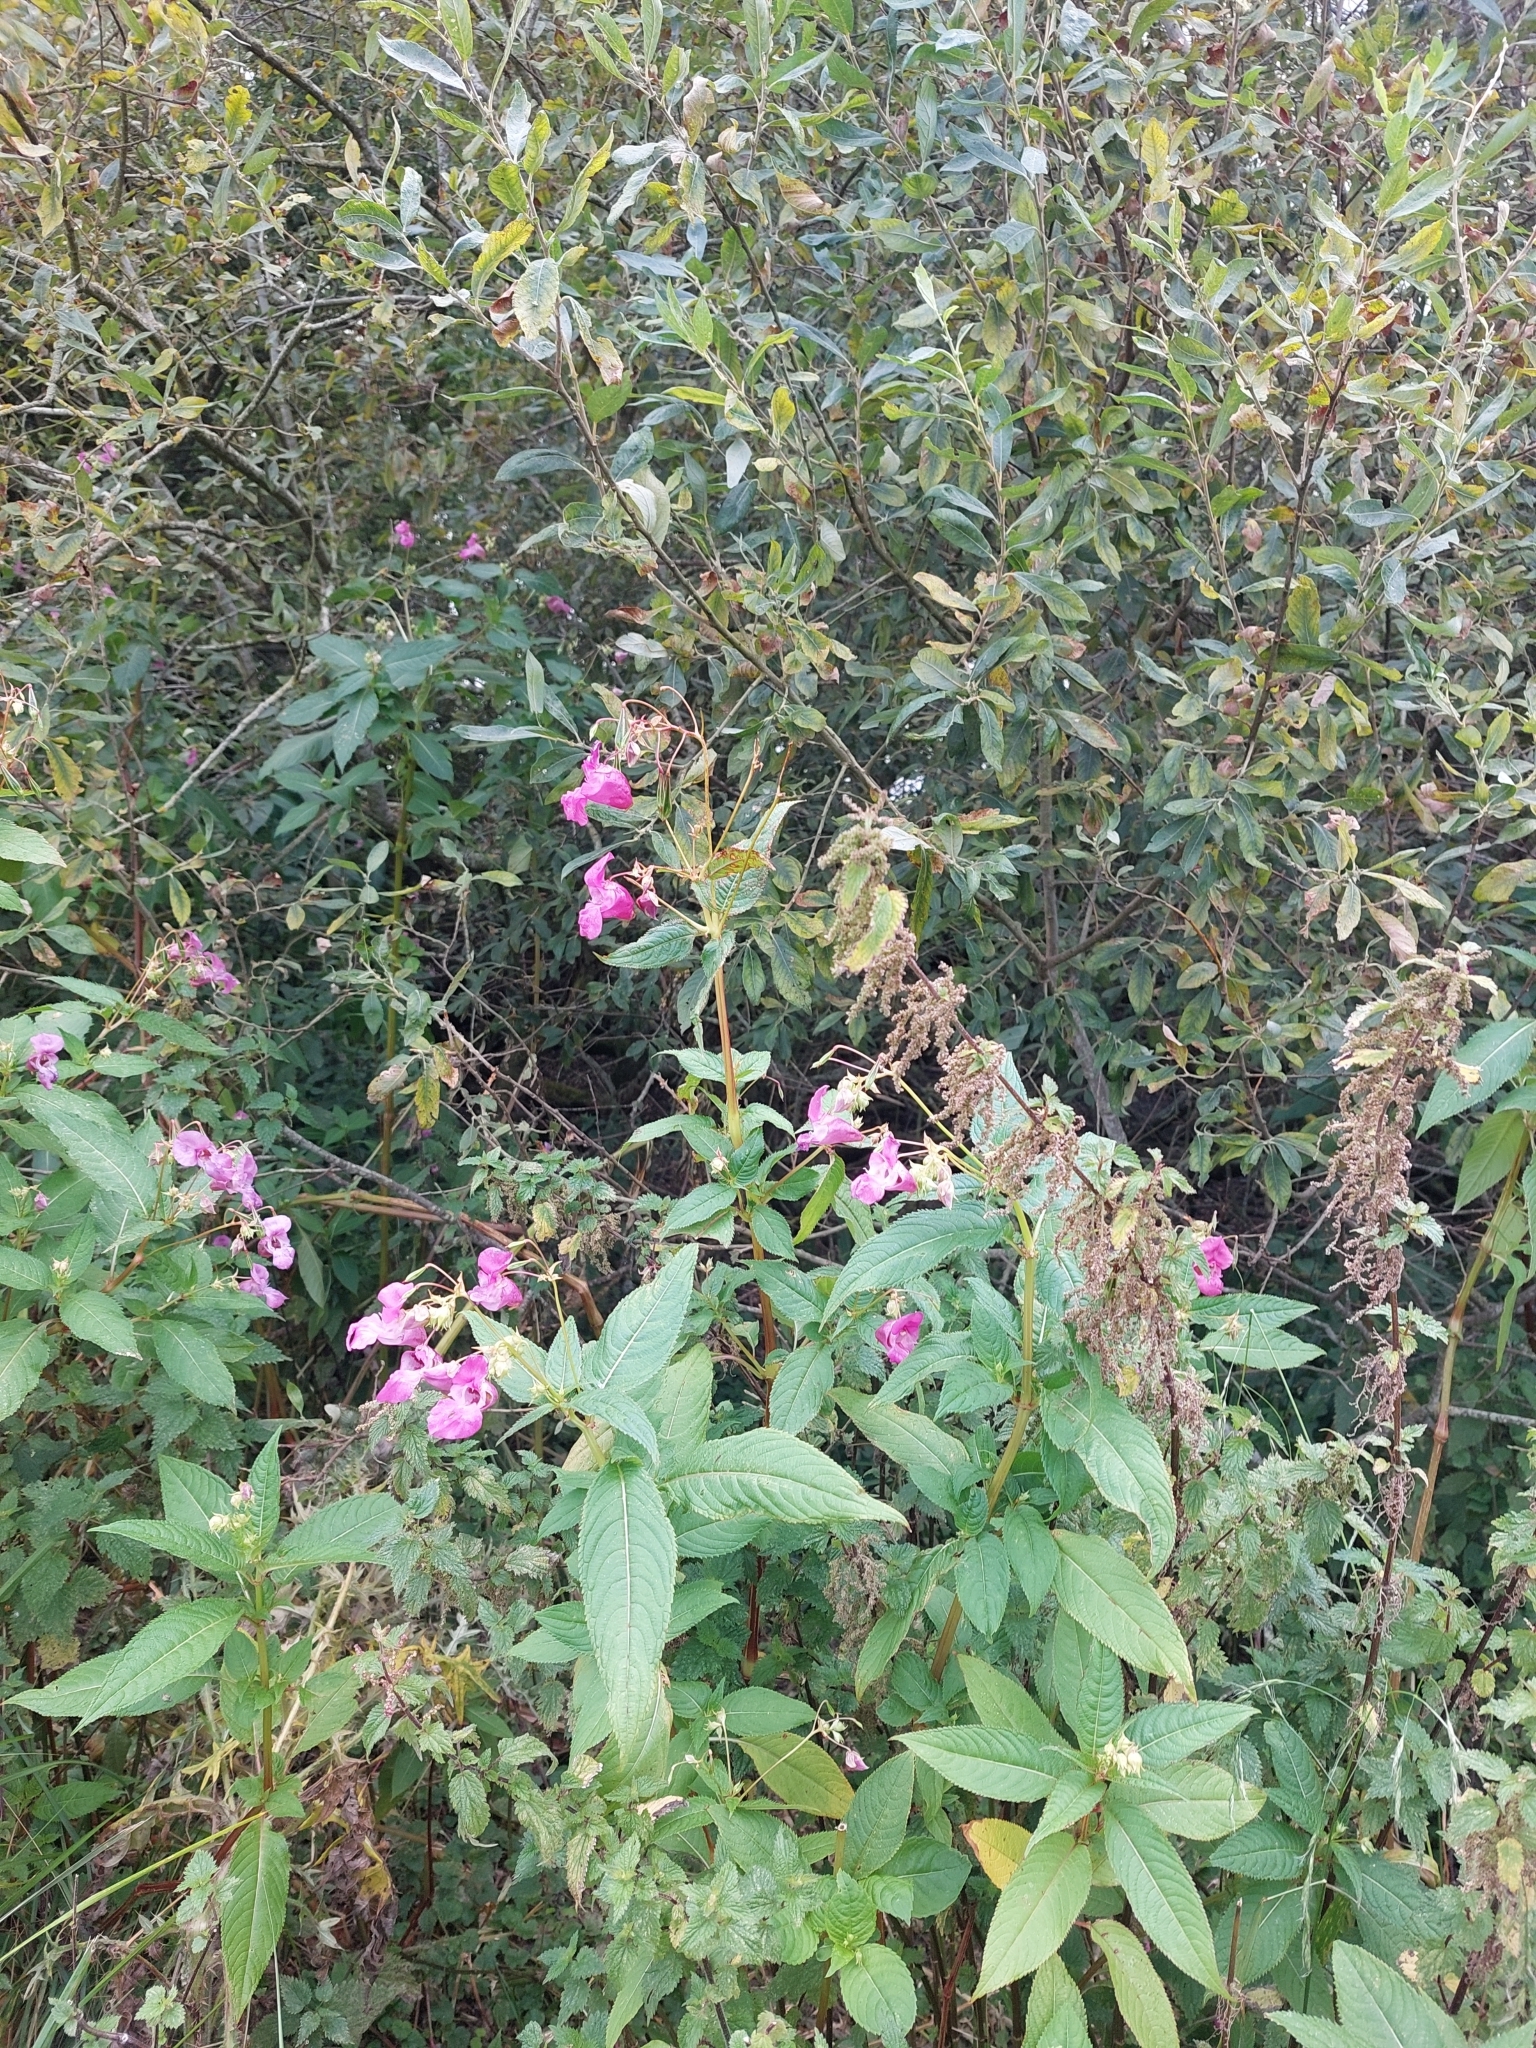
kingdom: Plantae
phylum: Tracheophyta
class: Magnoliopsida
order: Ericales
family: Balsaminaceae
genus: Impatiens
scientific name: Impatiens glandulifera
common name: Himalayan balsam
